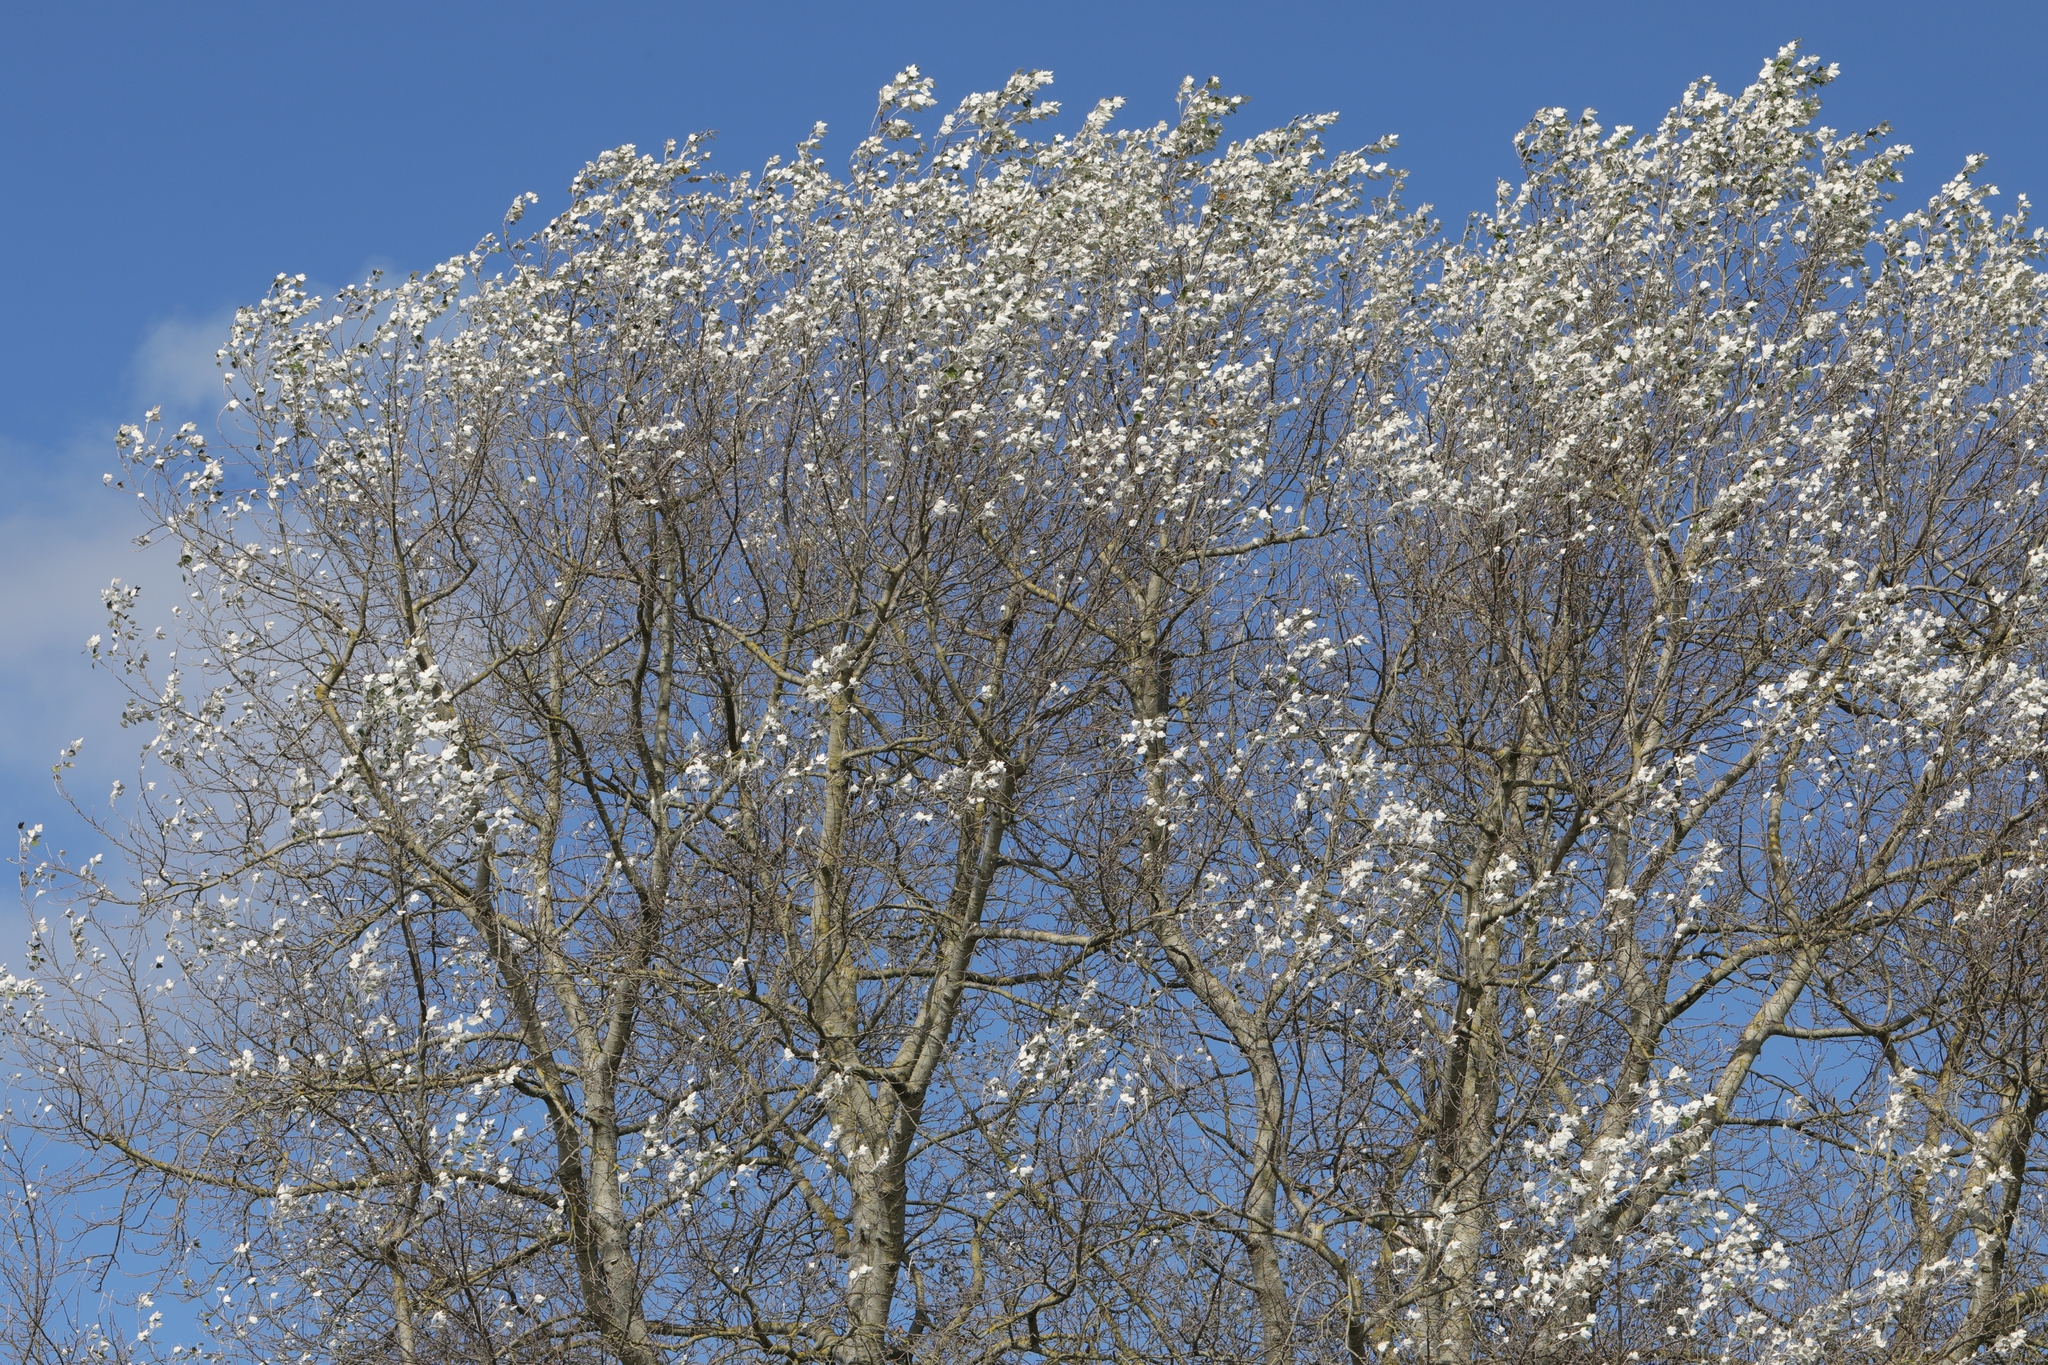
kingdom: Plantae
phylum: Tracheophyta
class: Magnoliopsida
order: Malpighiales
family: Salicaceae
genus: Populus
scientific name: Populus alba
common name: White poplar
